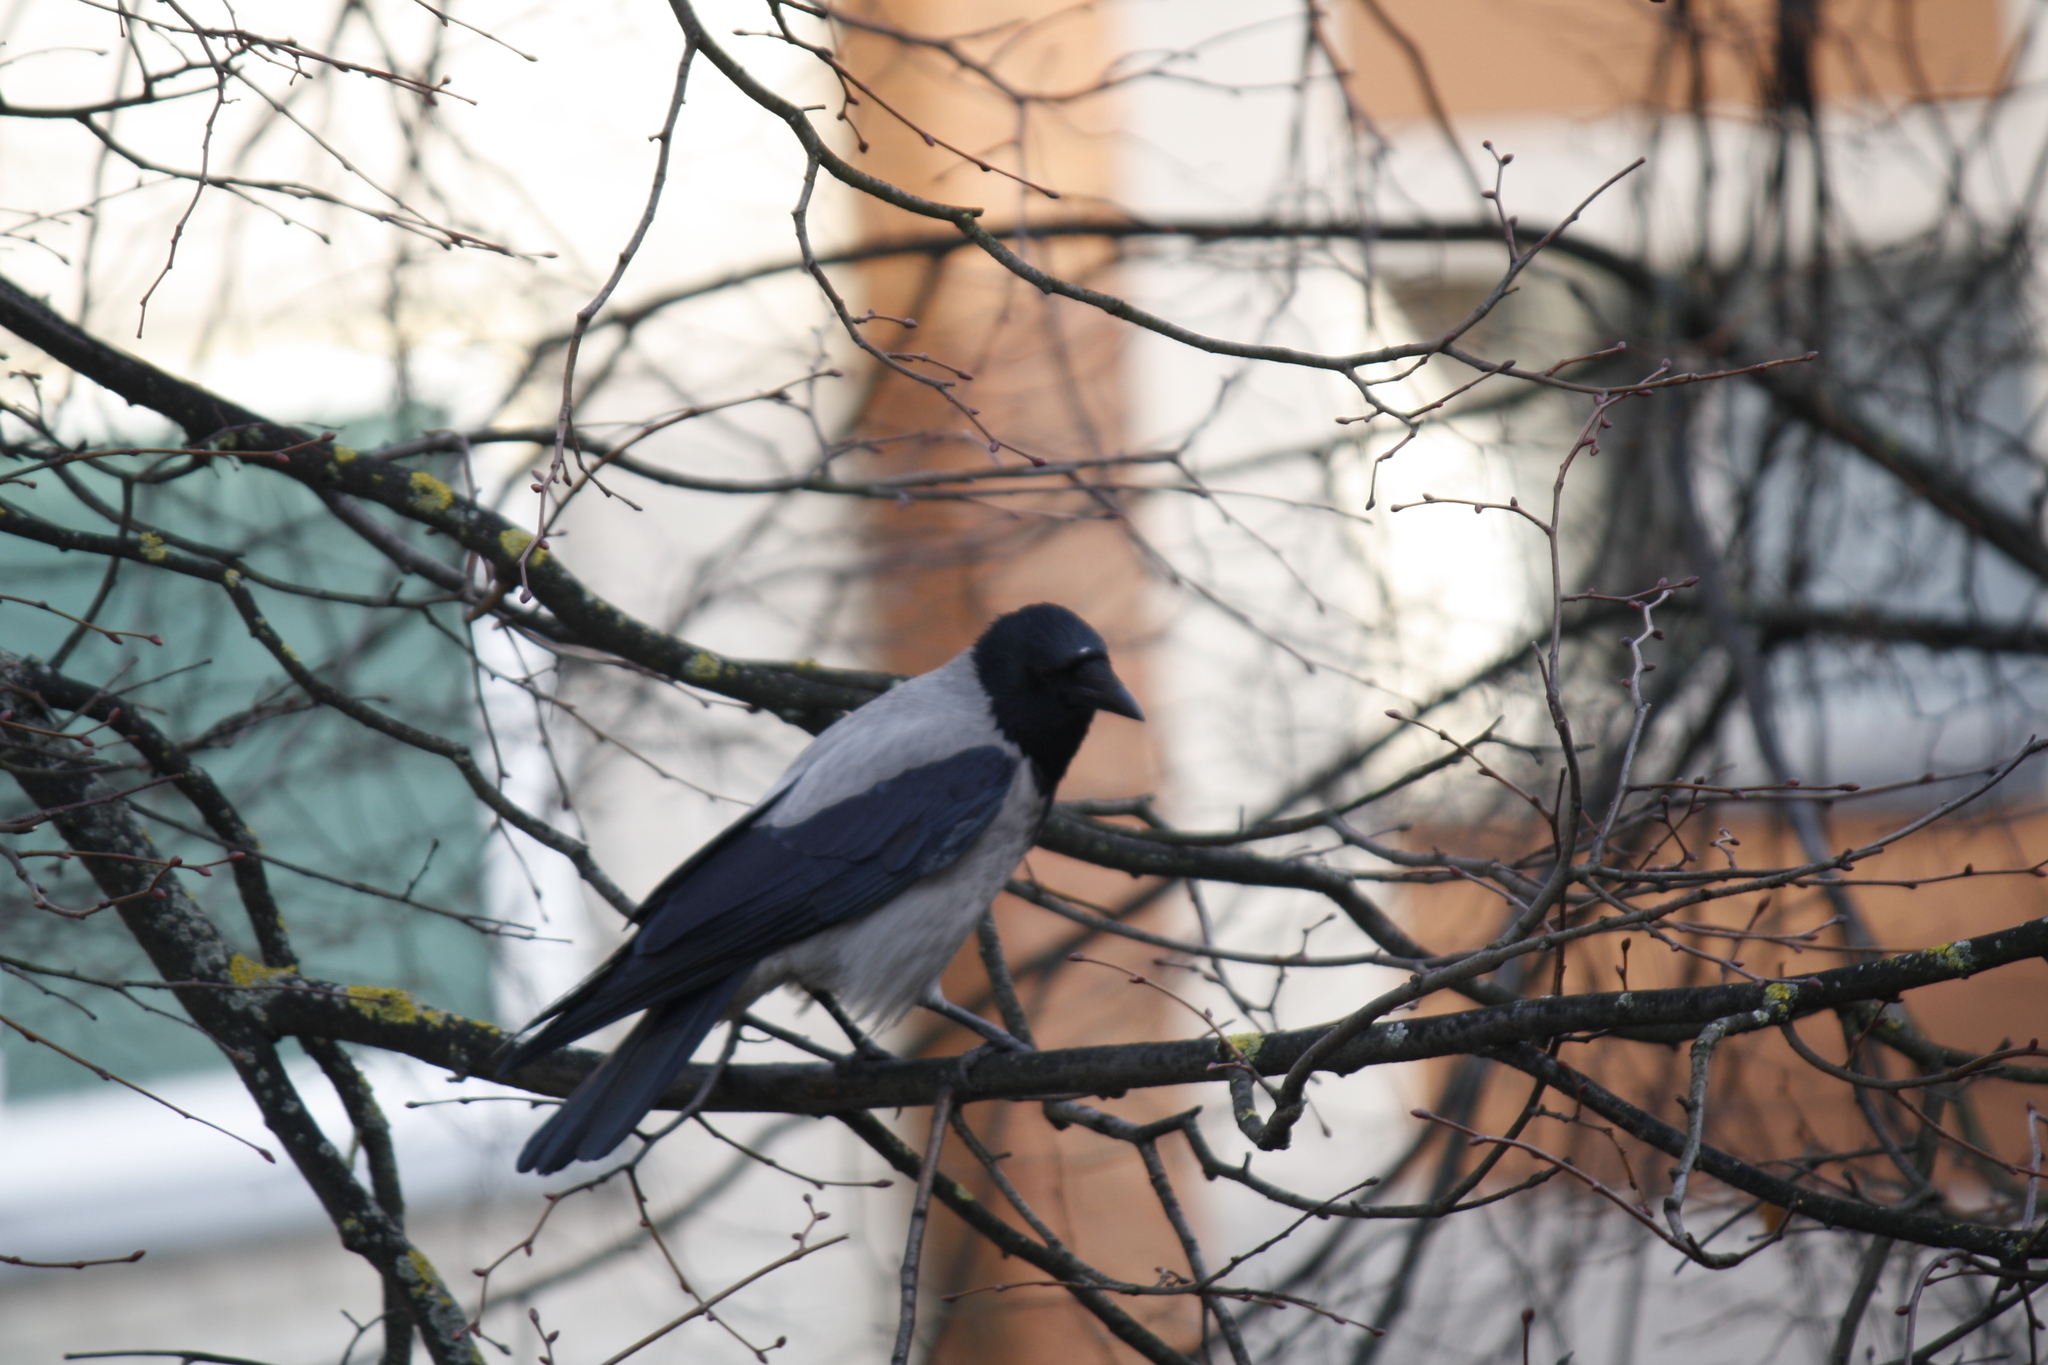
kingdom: Animalia
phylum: Chordata
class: Aves
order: Passeriformes
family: Corvidae
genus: Corvus
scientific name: Corvus cornix
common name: Hooded crow
